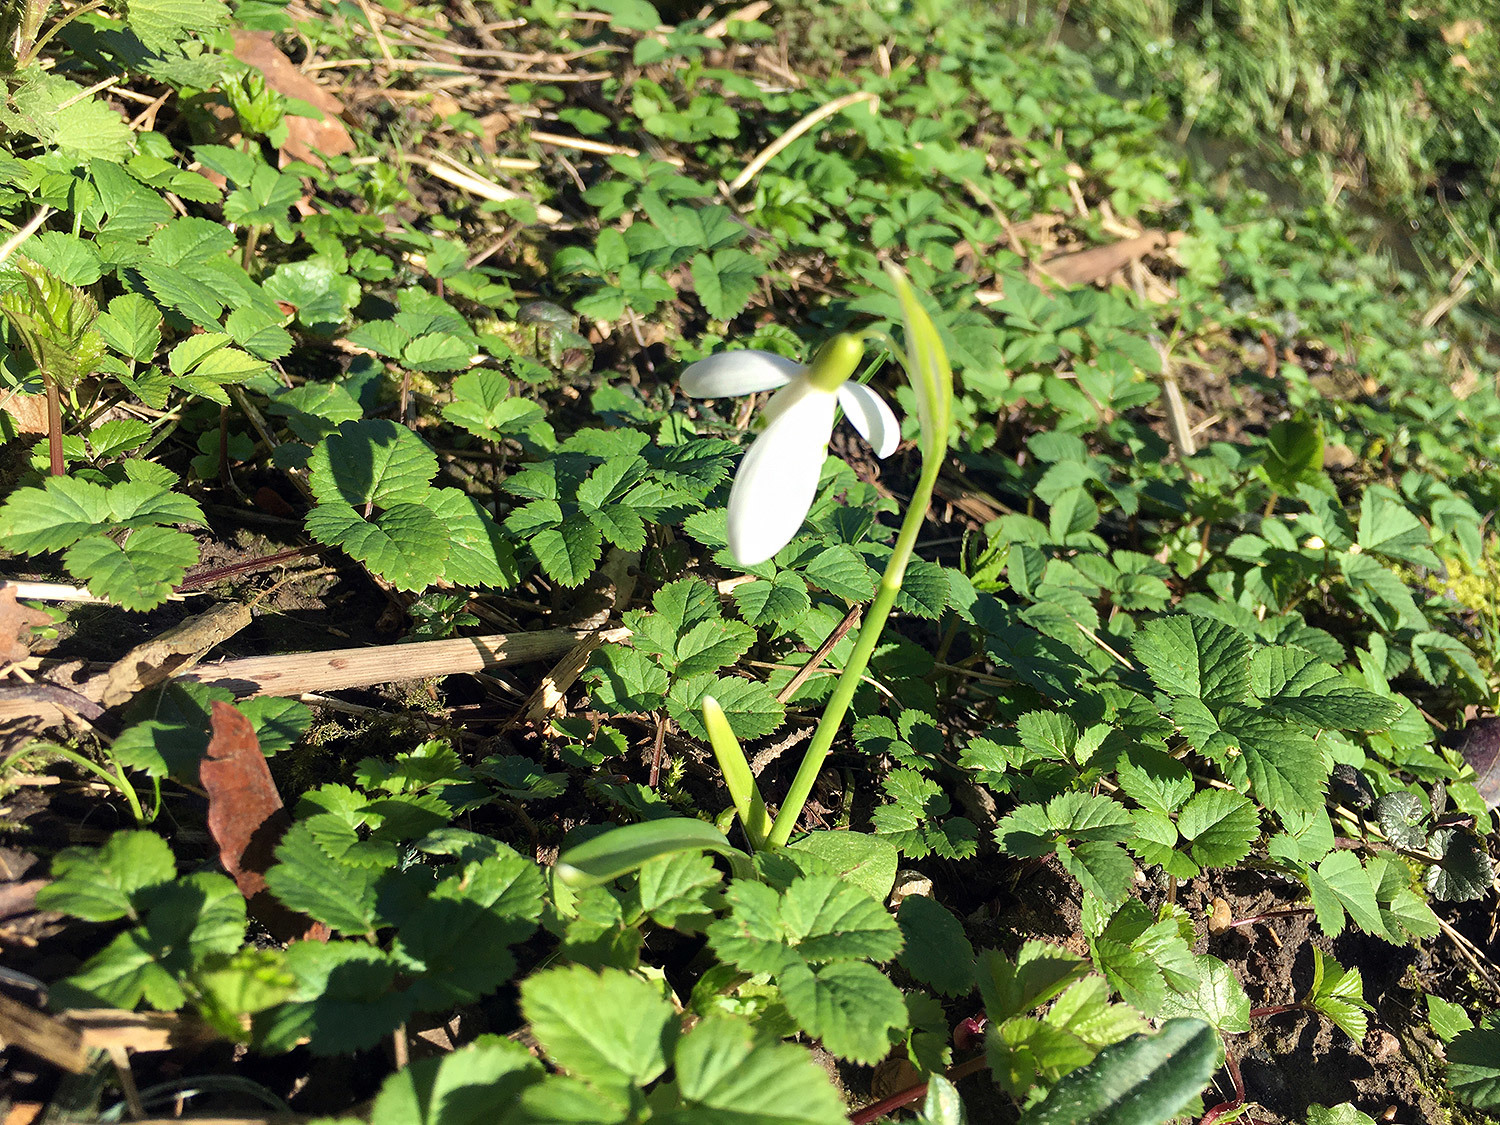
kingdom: Plantae
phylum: Tracheophyta
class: Liliopsida
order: Asparagales
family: Amaryllidaceae
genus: Galanthus
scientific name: Galanthus nivalis
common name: Snowdrop
